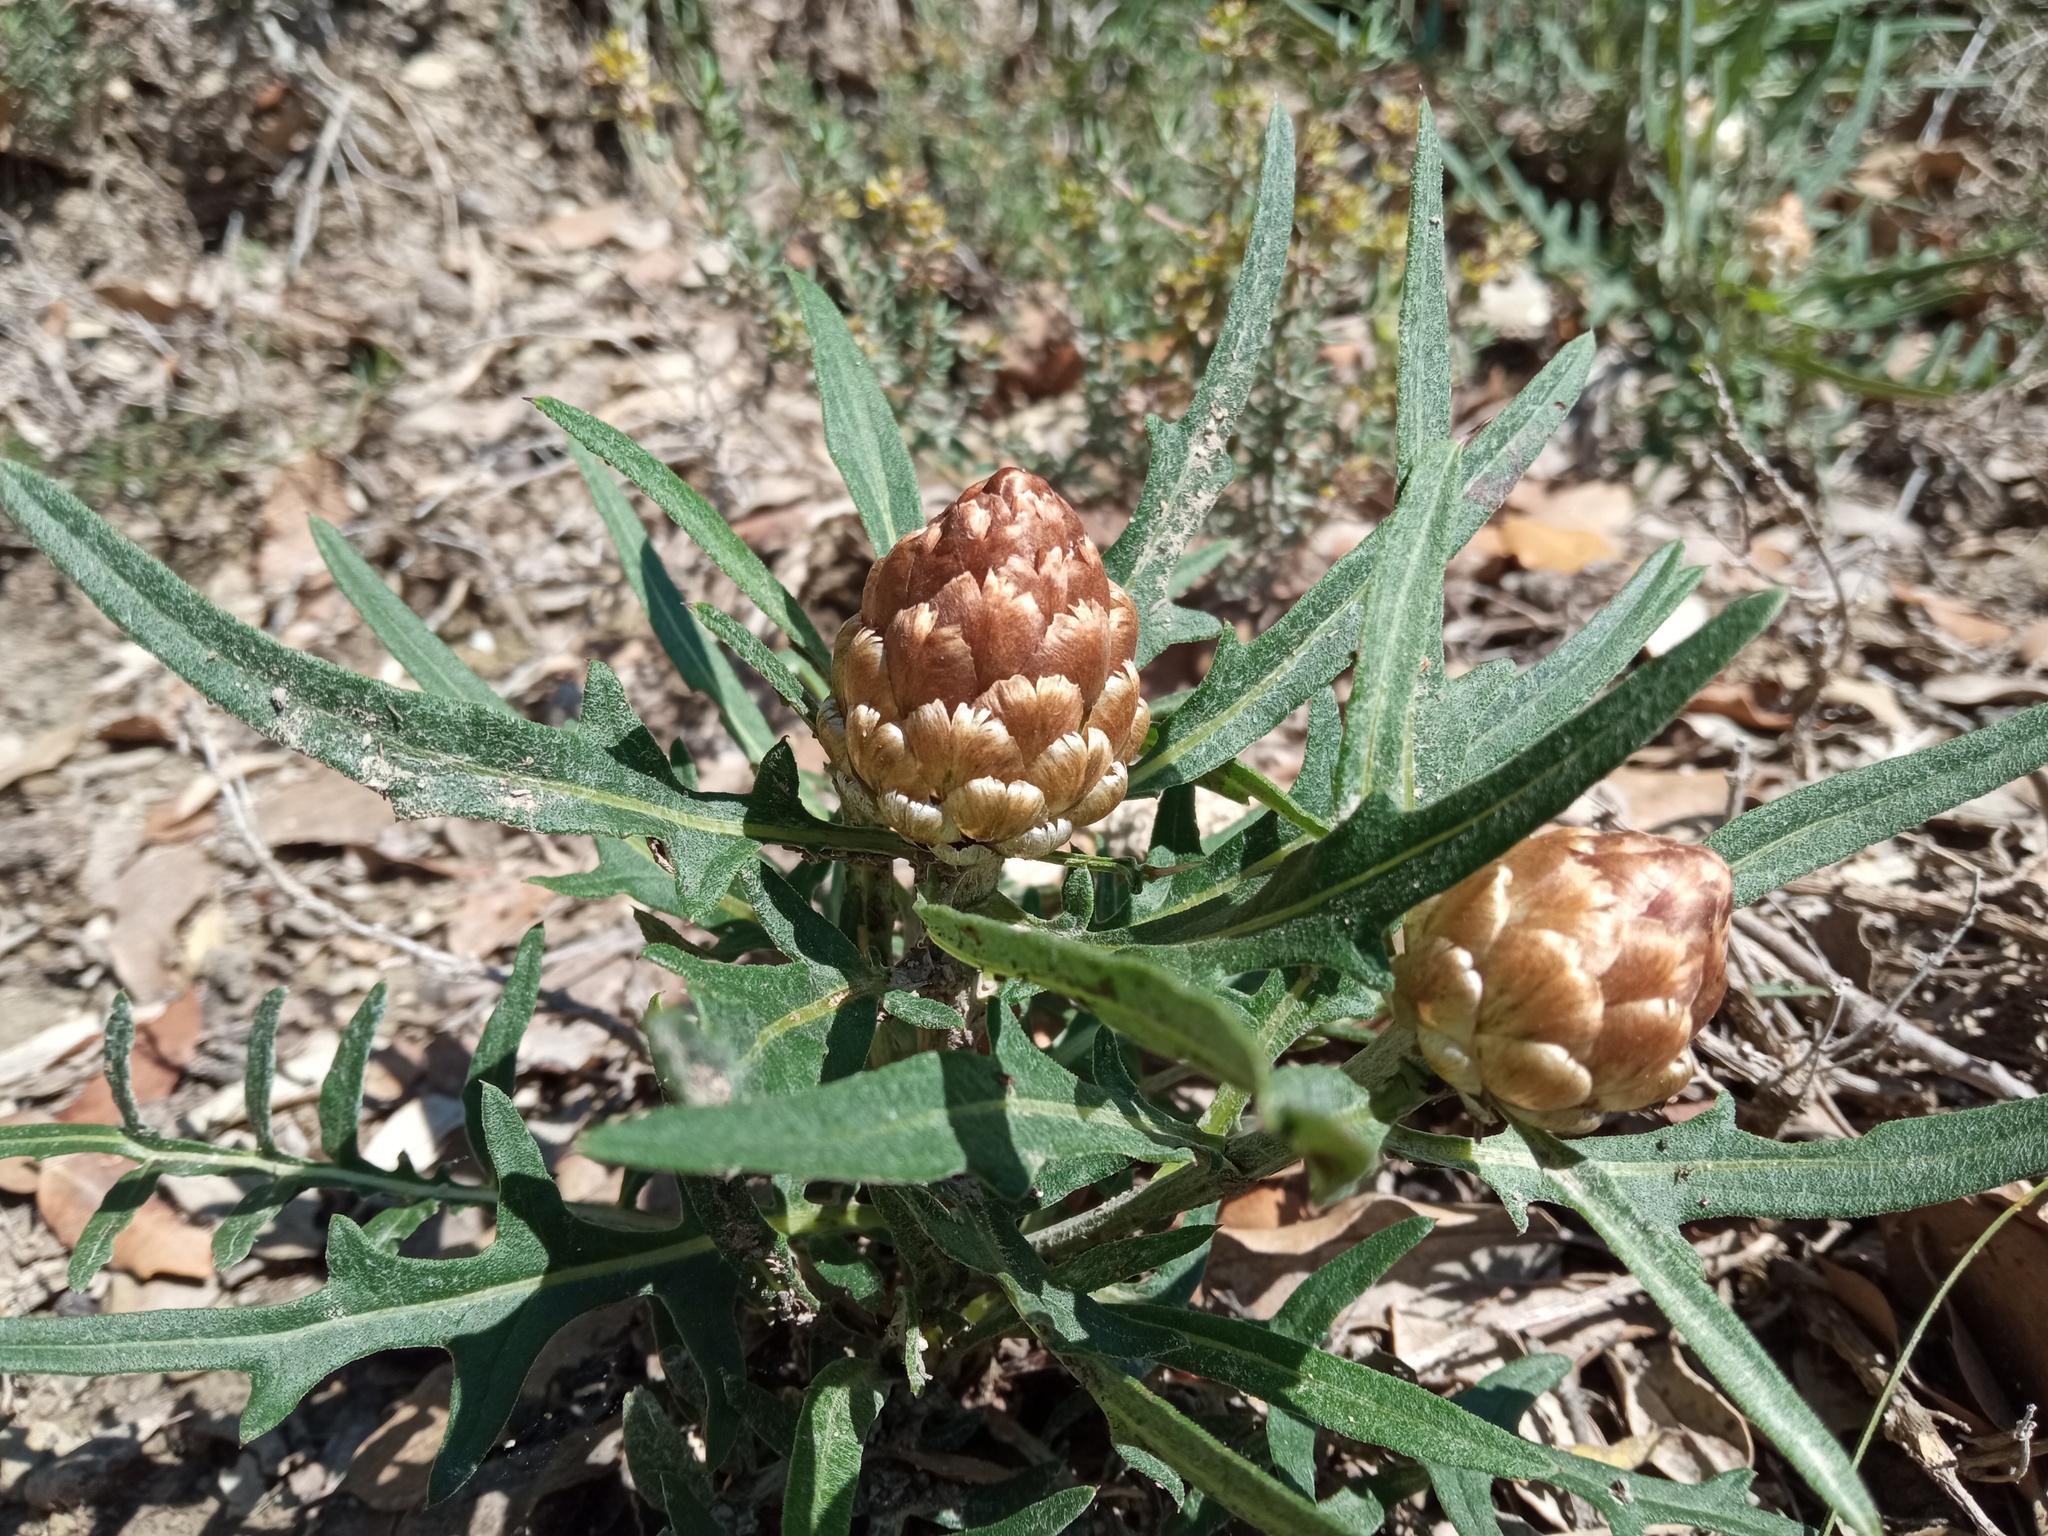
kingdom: Plantae
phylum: Tracheophyta
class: Magnoliopsida
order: Asterales
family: Asteraceae
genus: Leuzea
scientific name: Leuzea conifera
